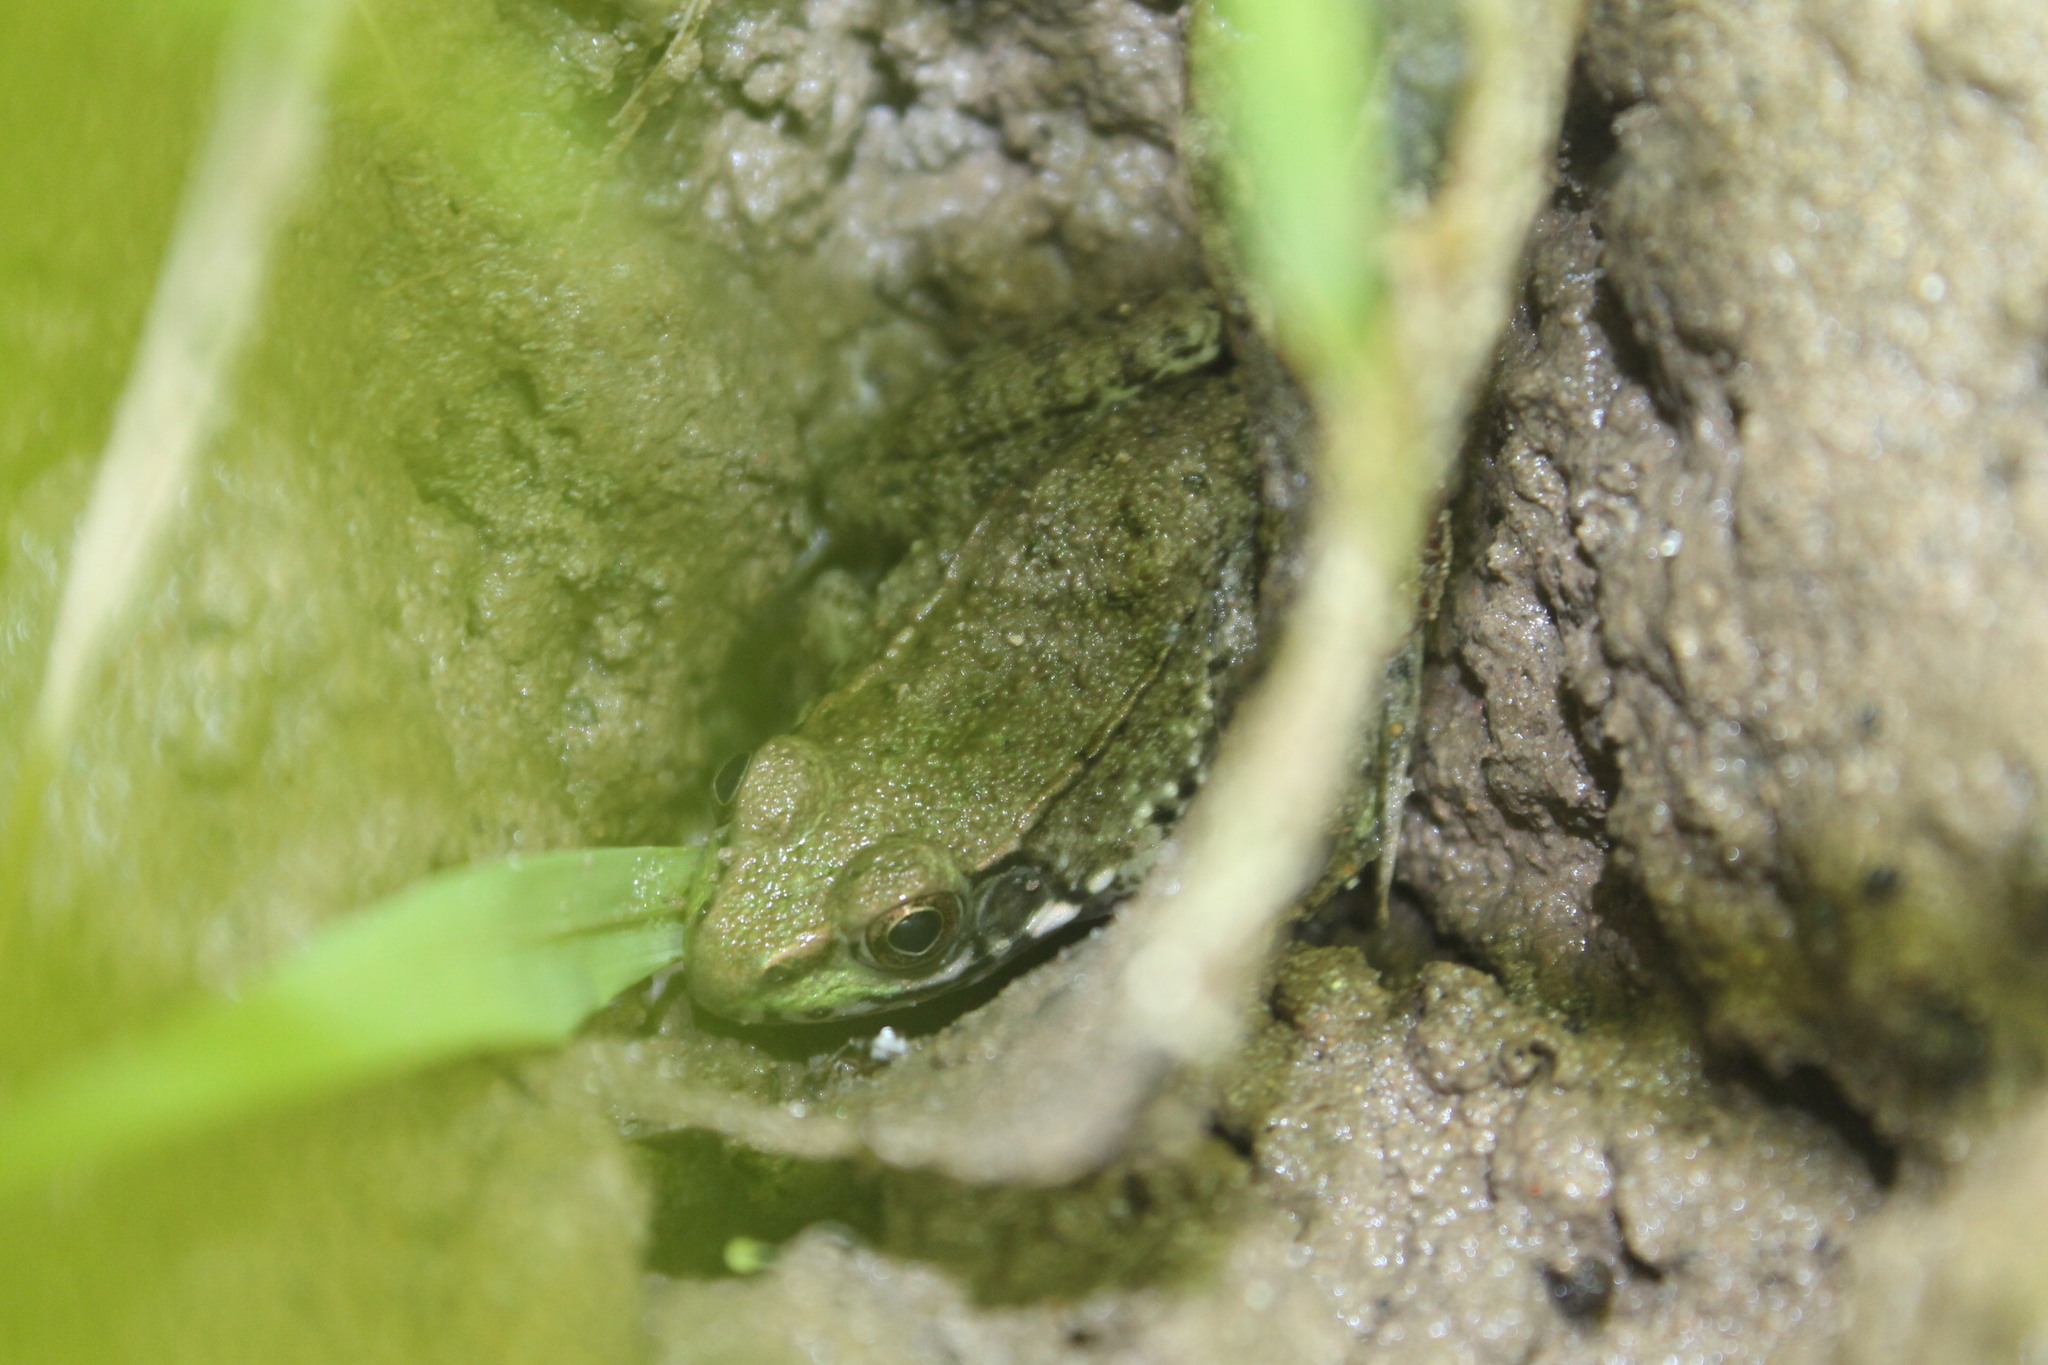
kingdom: Animalia
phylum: Chordata
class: Amphibia
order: Anura
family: Ranidae
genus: Lithobates
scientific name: Lithobates clamitans
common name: Green frog
